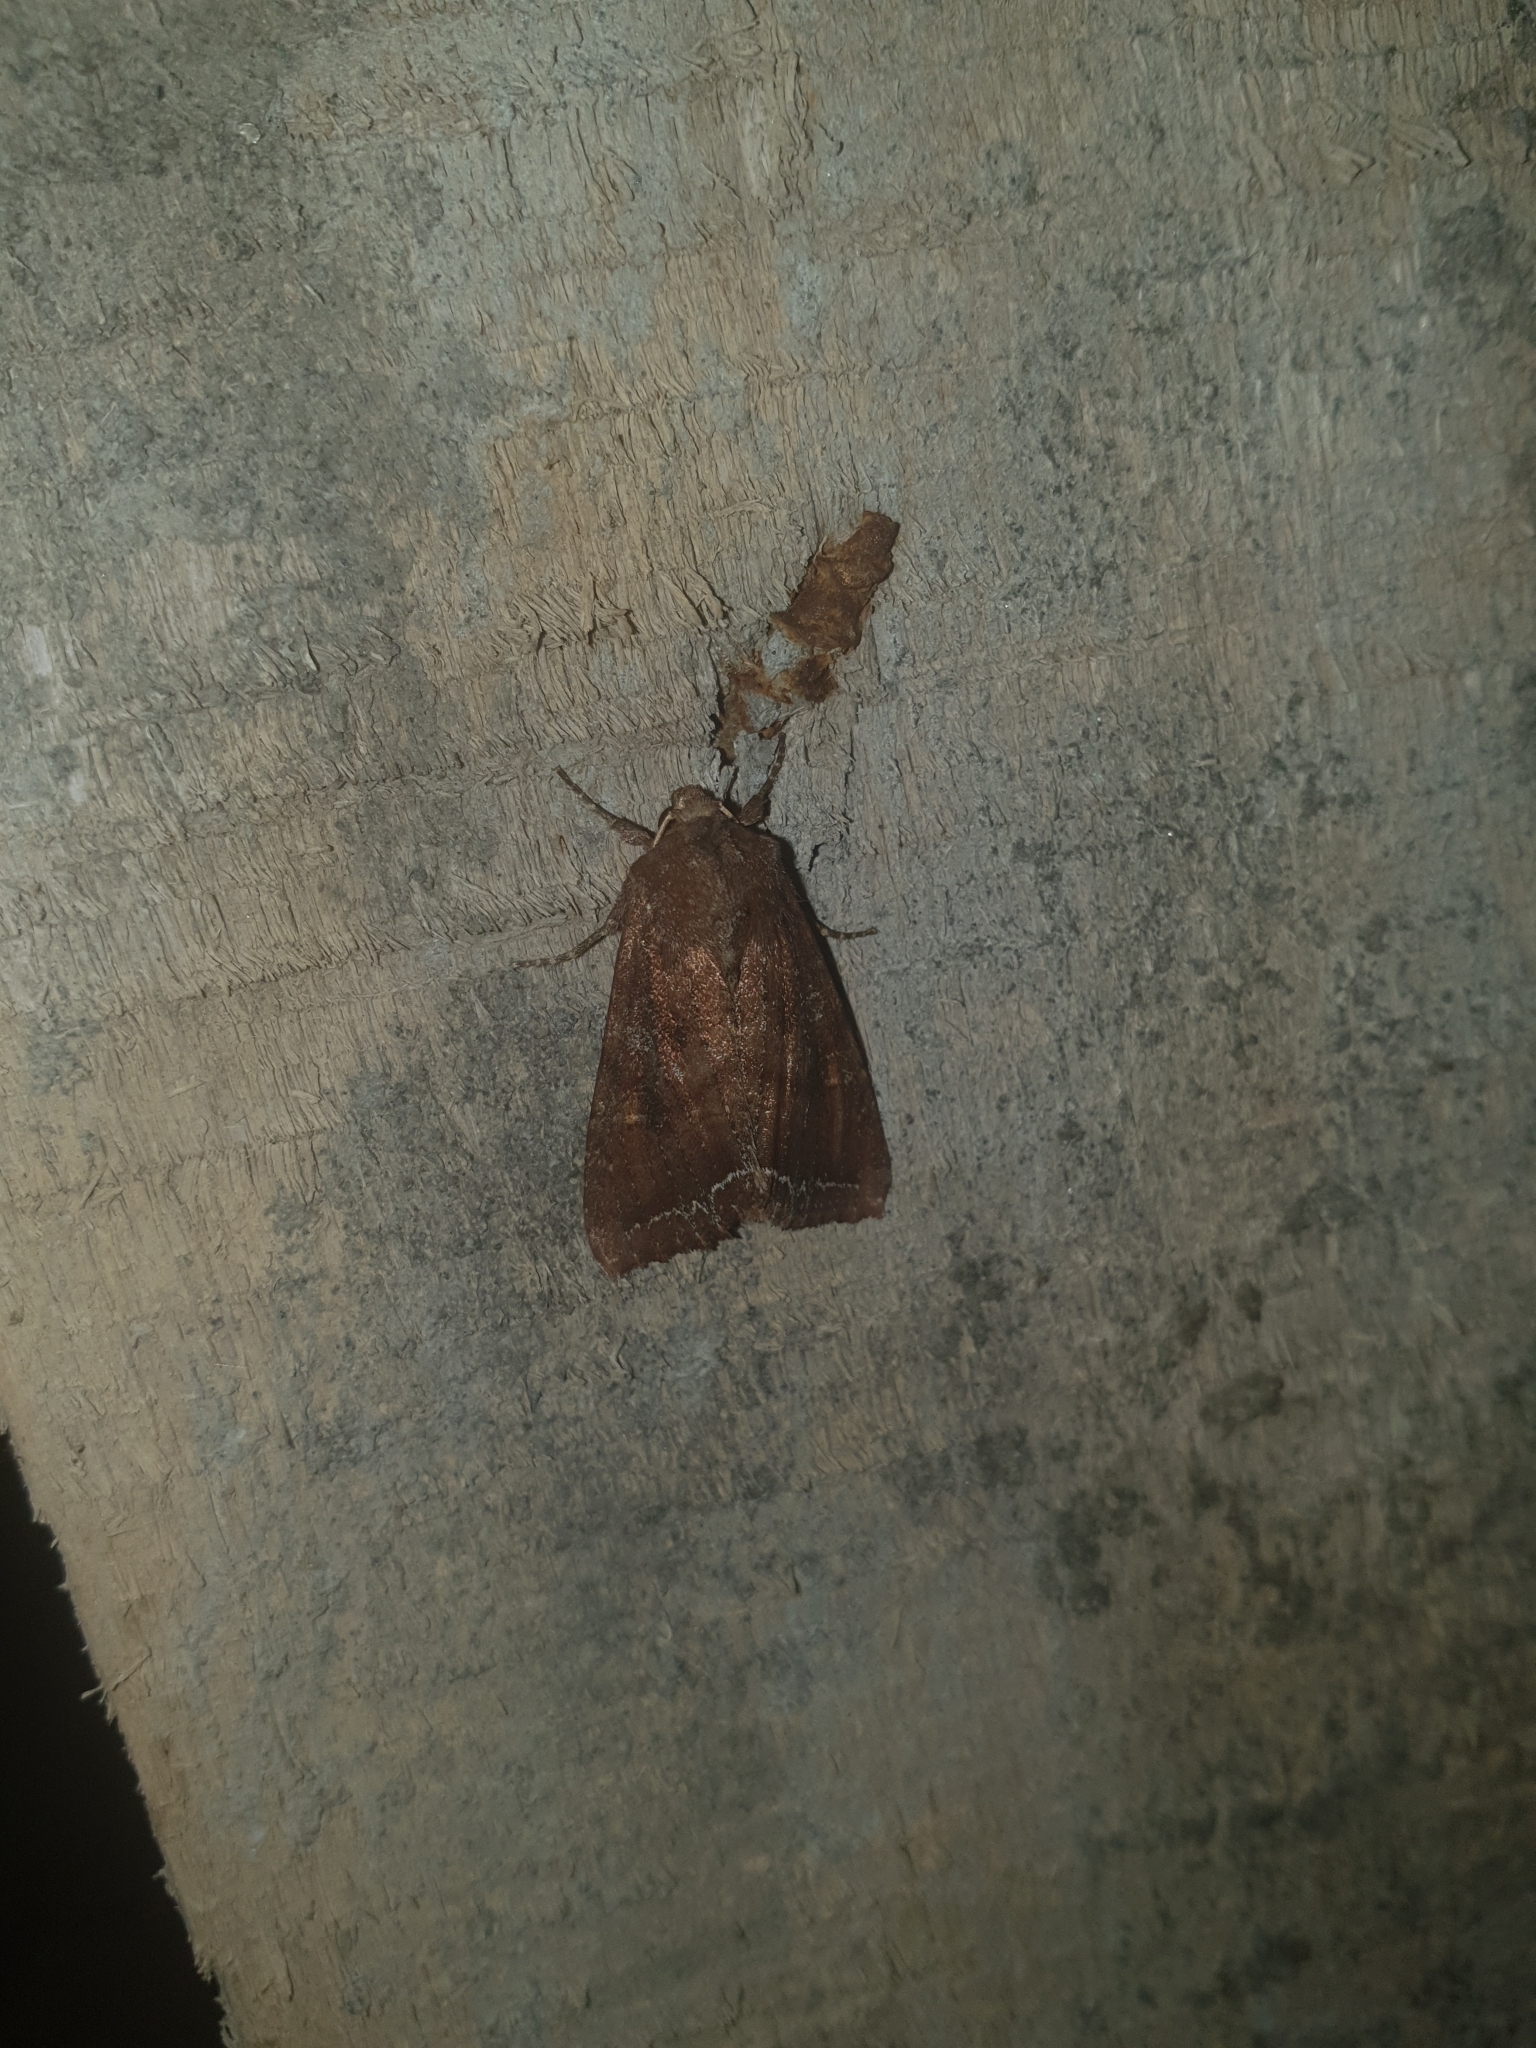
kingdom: Animalia
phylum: Arthropoda
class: Insecta
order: Lepidoptera
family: Noctuidae
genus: Lacanobia
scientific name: Lacanobia oleracea
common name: Bright-line brown-eye
